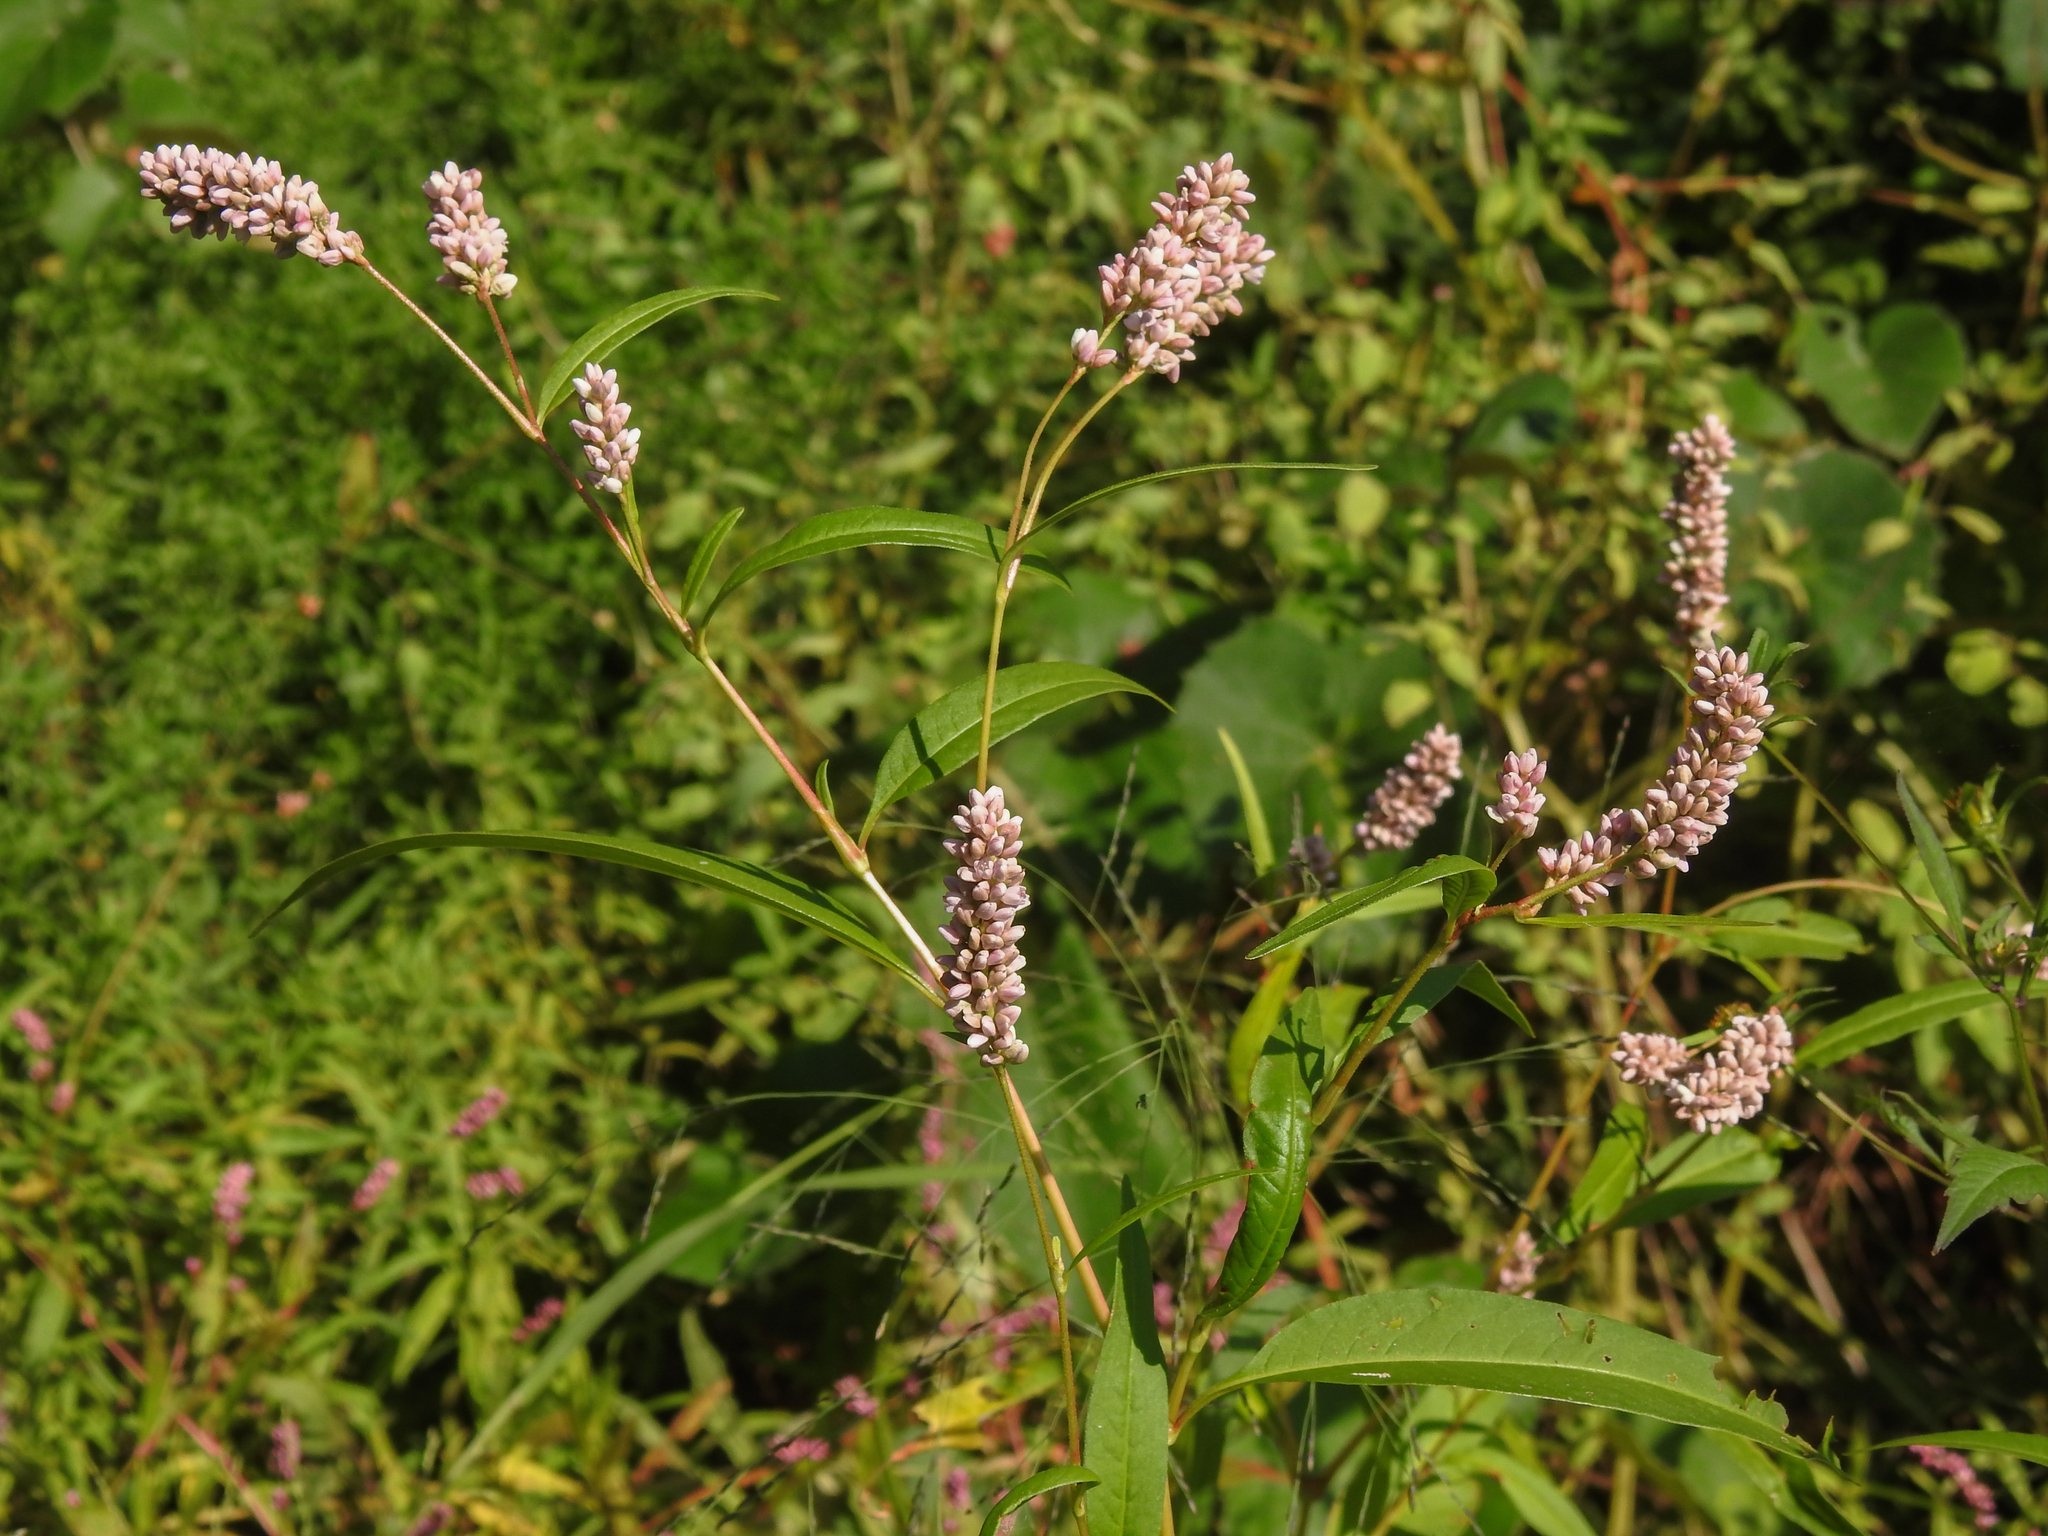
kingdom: Plantae
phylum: Tracheophyta
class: Magnoliopsida
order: Caryophyllales
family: Polygonaceae
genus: Persicaria
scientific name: Persicaria pensylvanica
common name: Pinkweed
